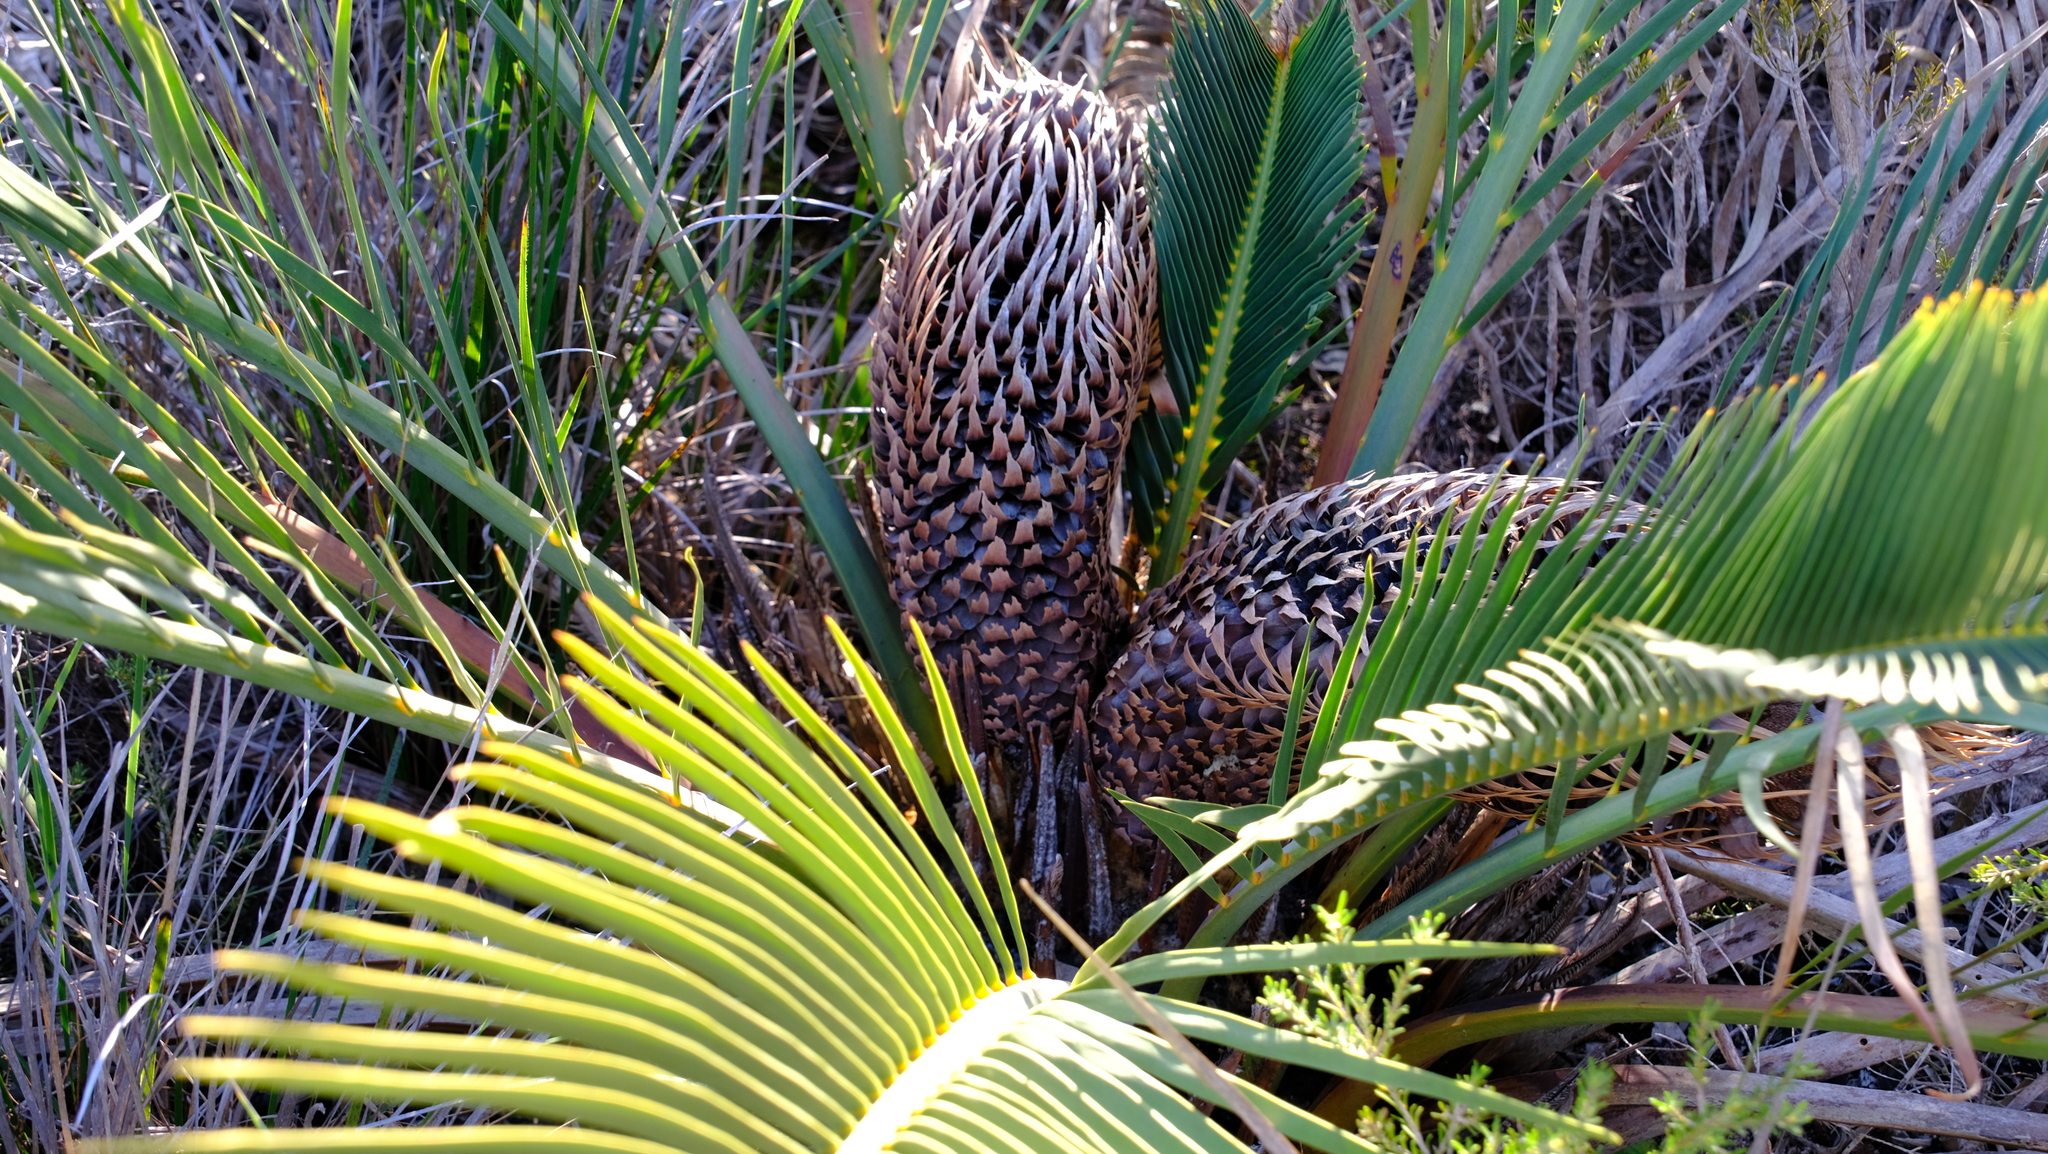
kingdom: Plantae
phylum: Tracheophyta
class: Cycadopsida
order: Cycadales
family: Zamiaceae
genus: Macrozamia
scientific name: Macrozamia fraseri
